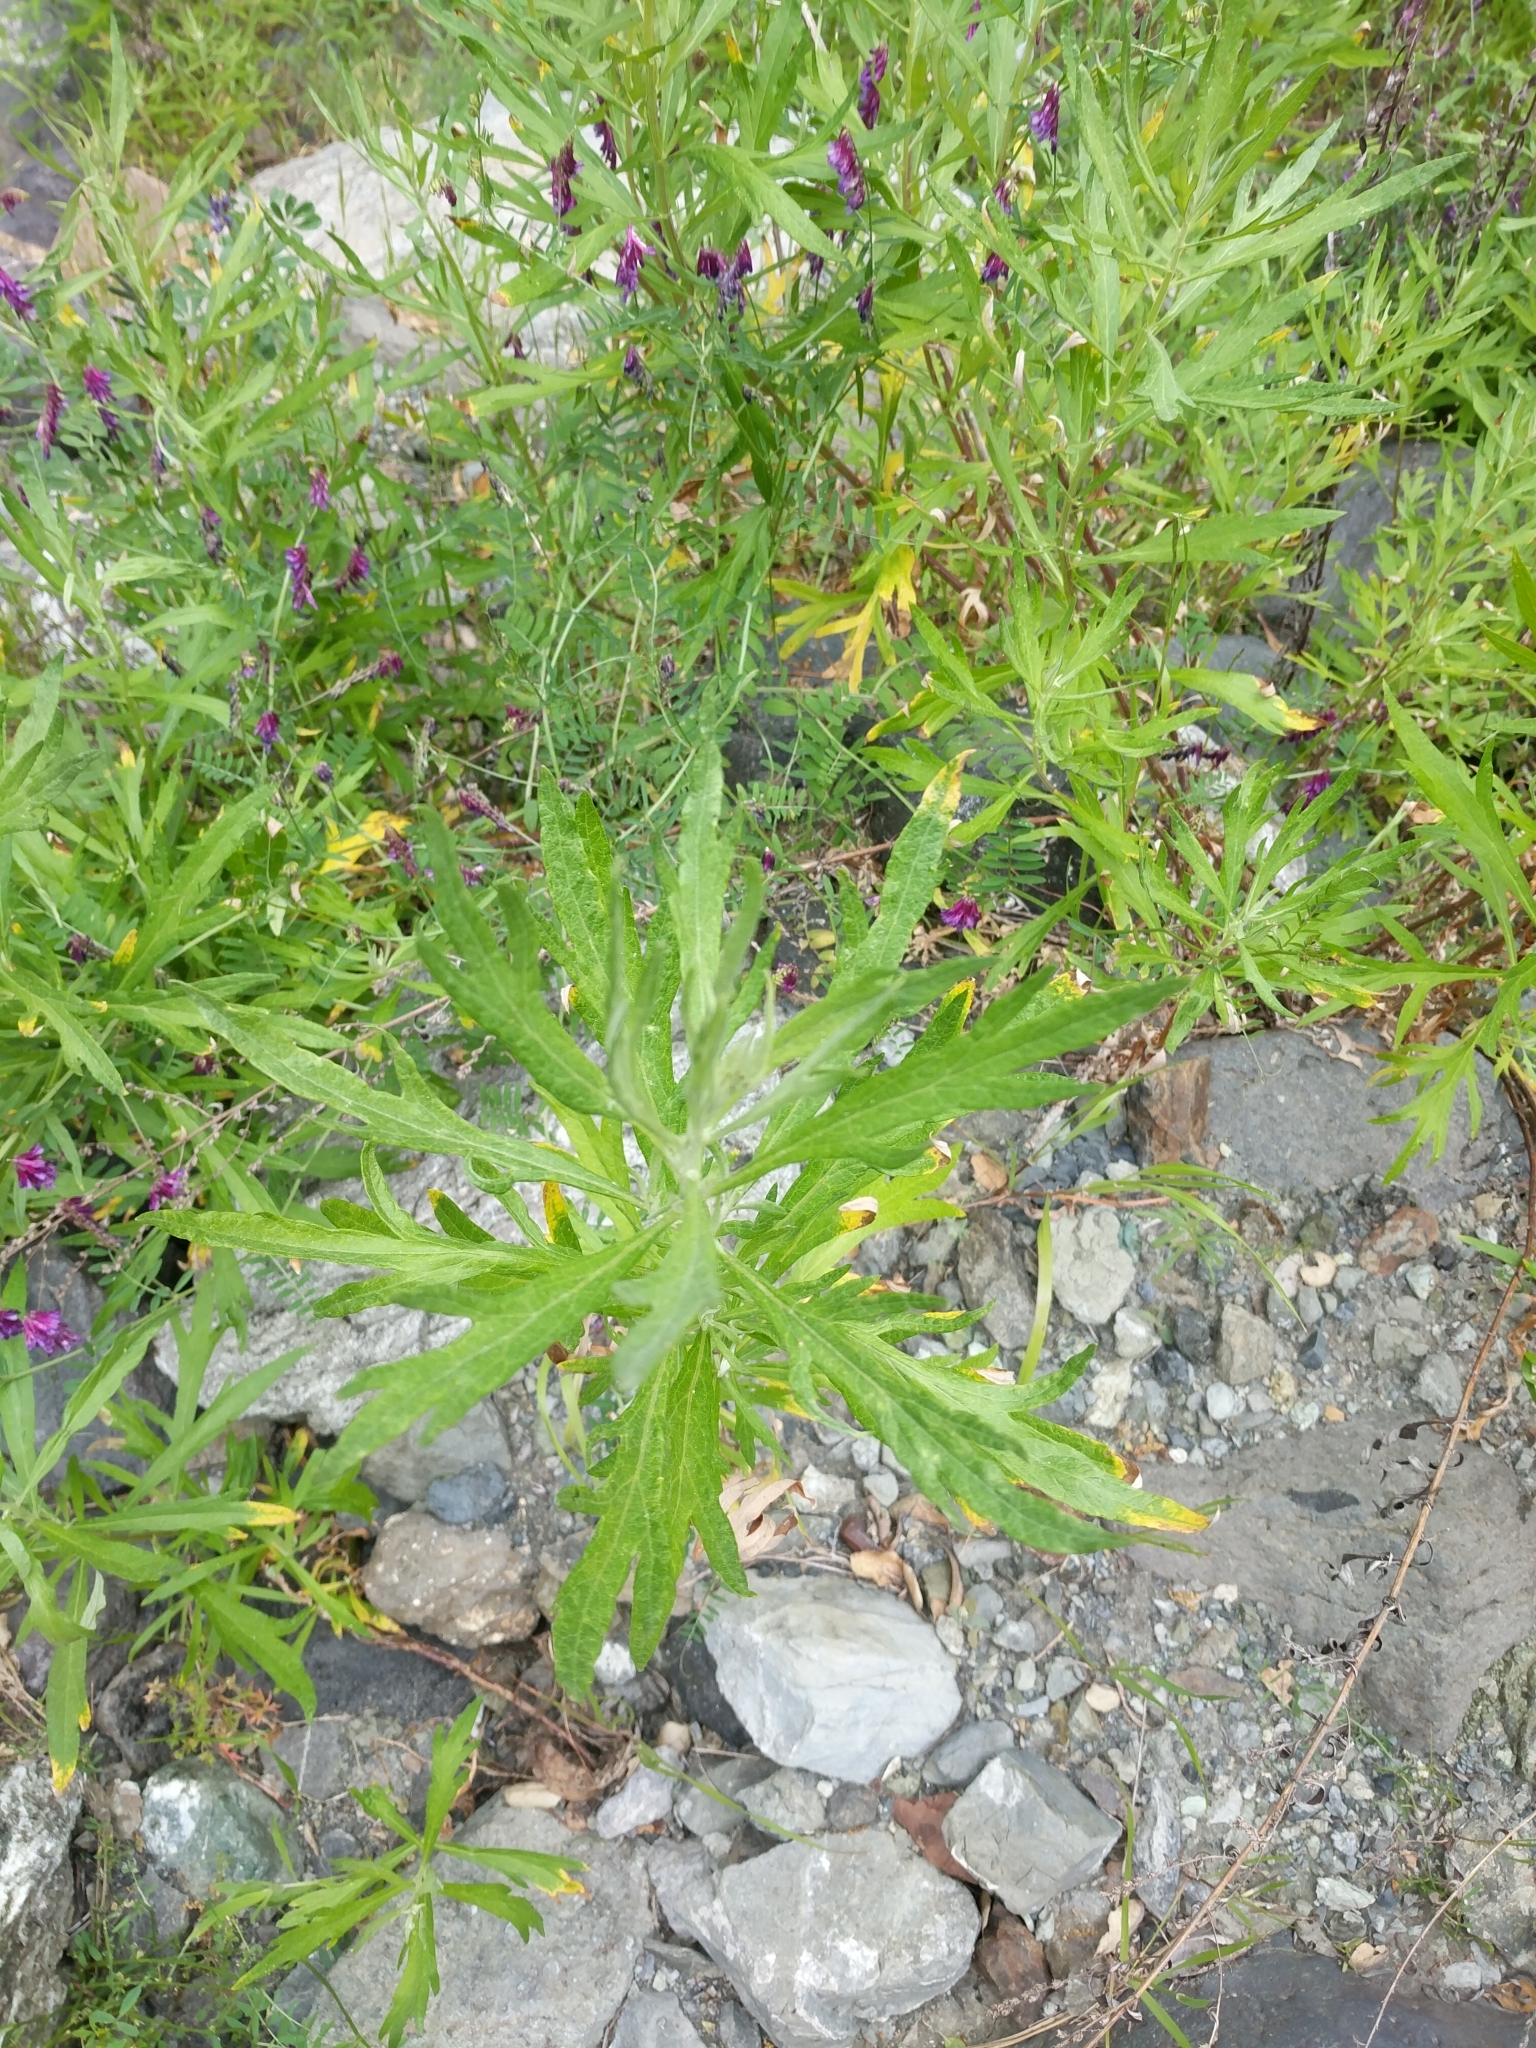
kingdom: Plantae
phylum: Tracheophyta
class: Magnoliopsida
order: Asterales
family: Asteraceae
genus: Artemisia
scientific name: Artemisia douglasiana
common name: Northwest mugwort
